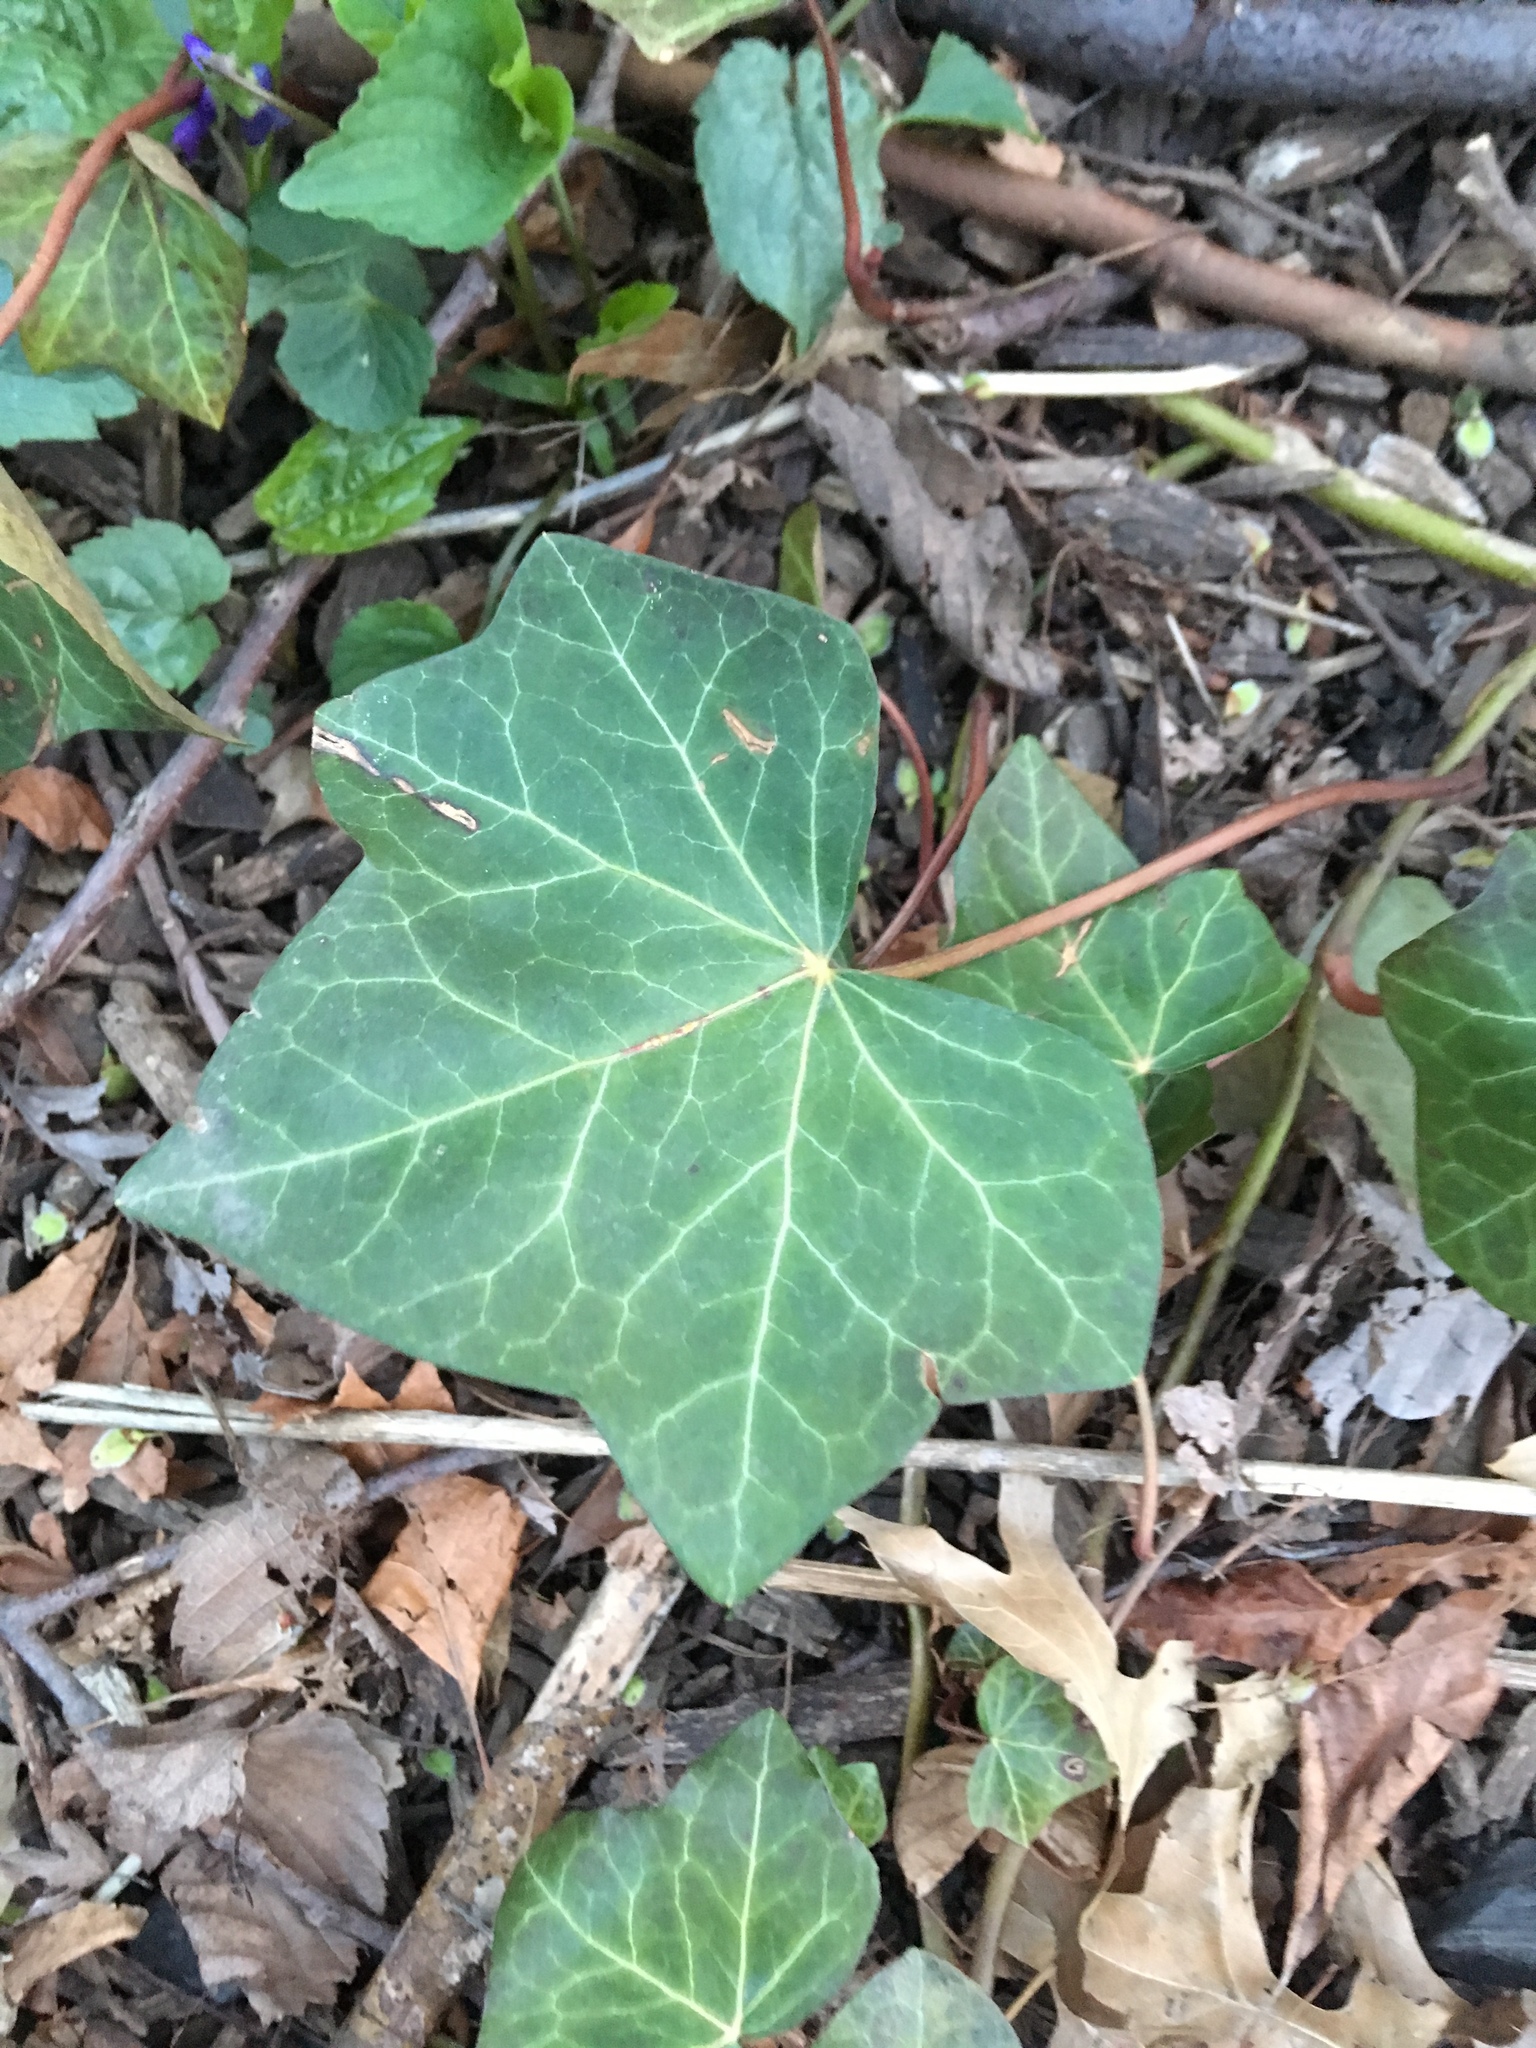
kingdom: Plantae
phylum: Tracheophyta
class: Magnoliopsida
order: Apiales
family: Araliaceae
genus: Hedera
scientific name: Hedera helix
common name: Ivy
